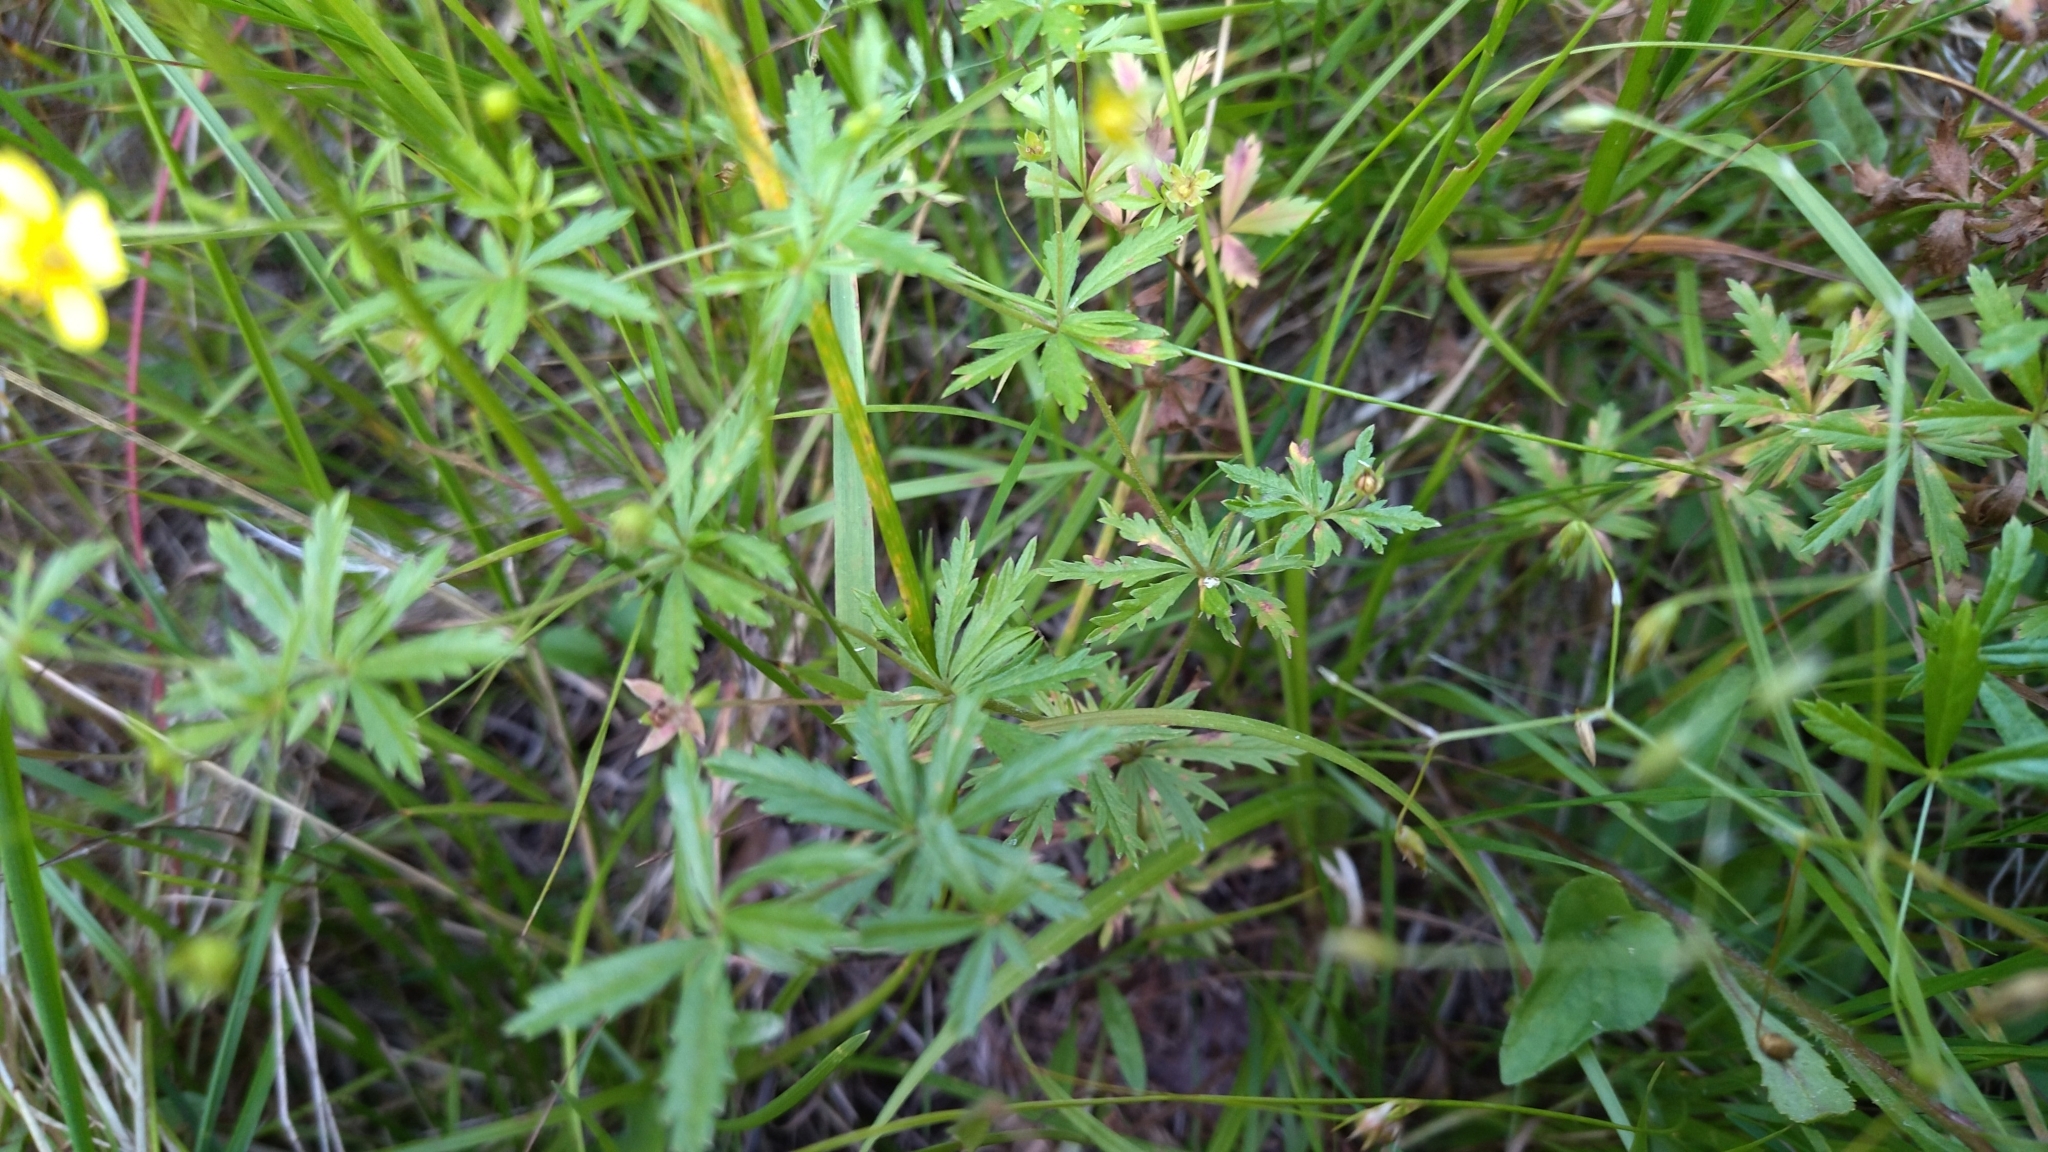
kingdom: Plantae
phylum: Tracheophyta
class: Magnoliopsida
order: Rosales
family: Rosaceae
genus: Potentilla
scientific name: Potentilla erecta
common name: Tormentil
